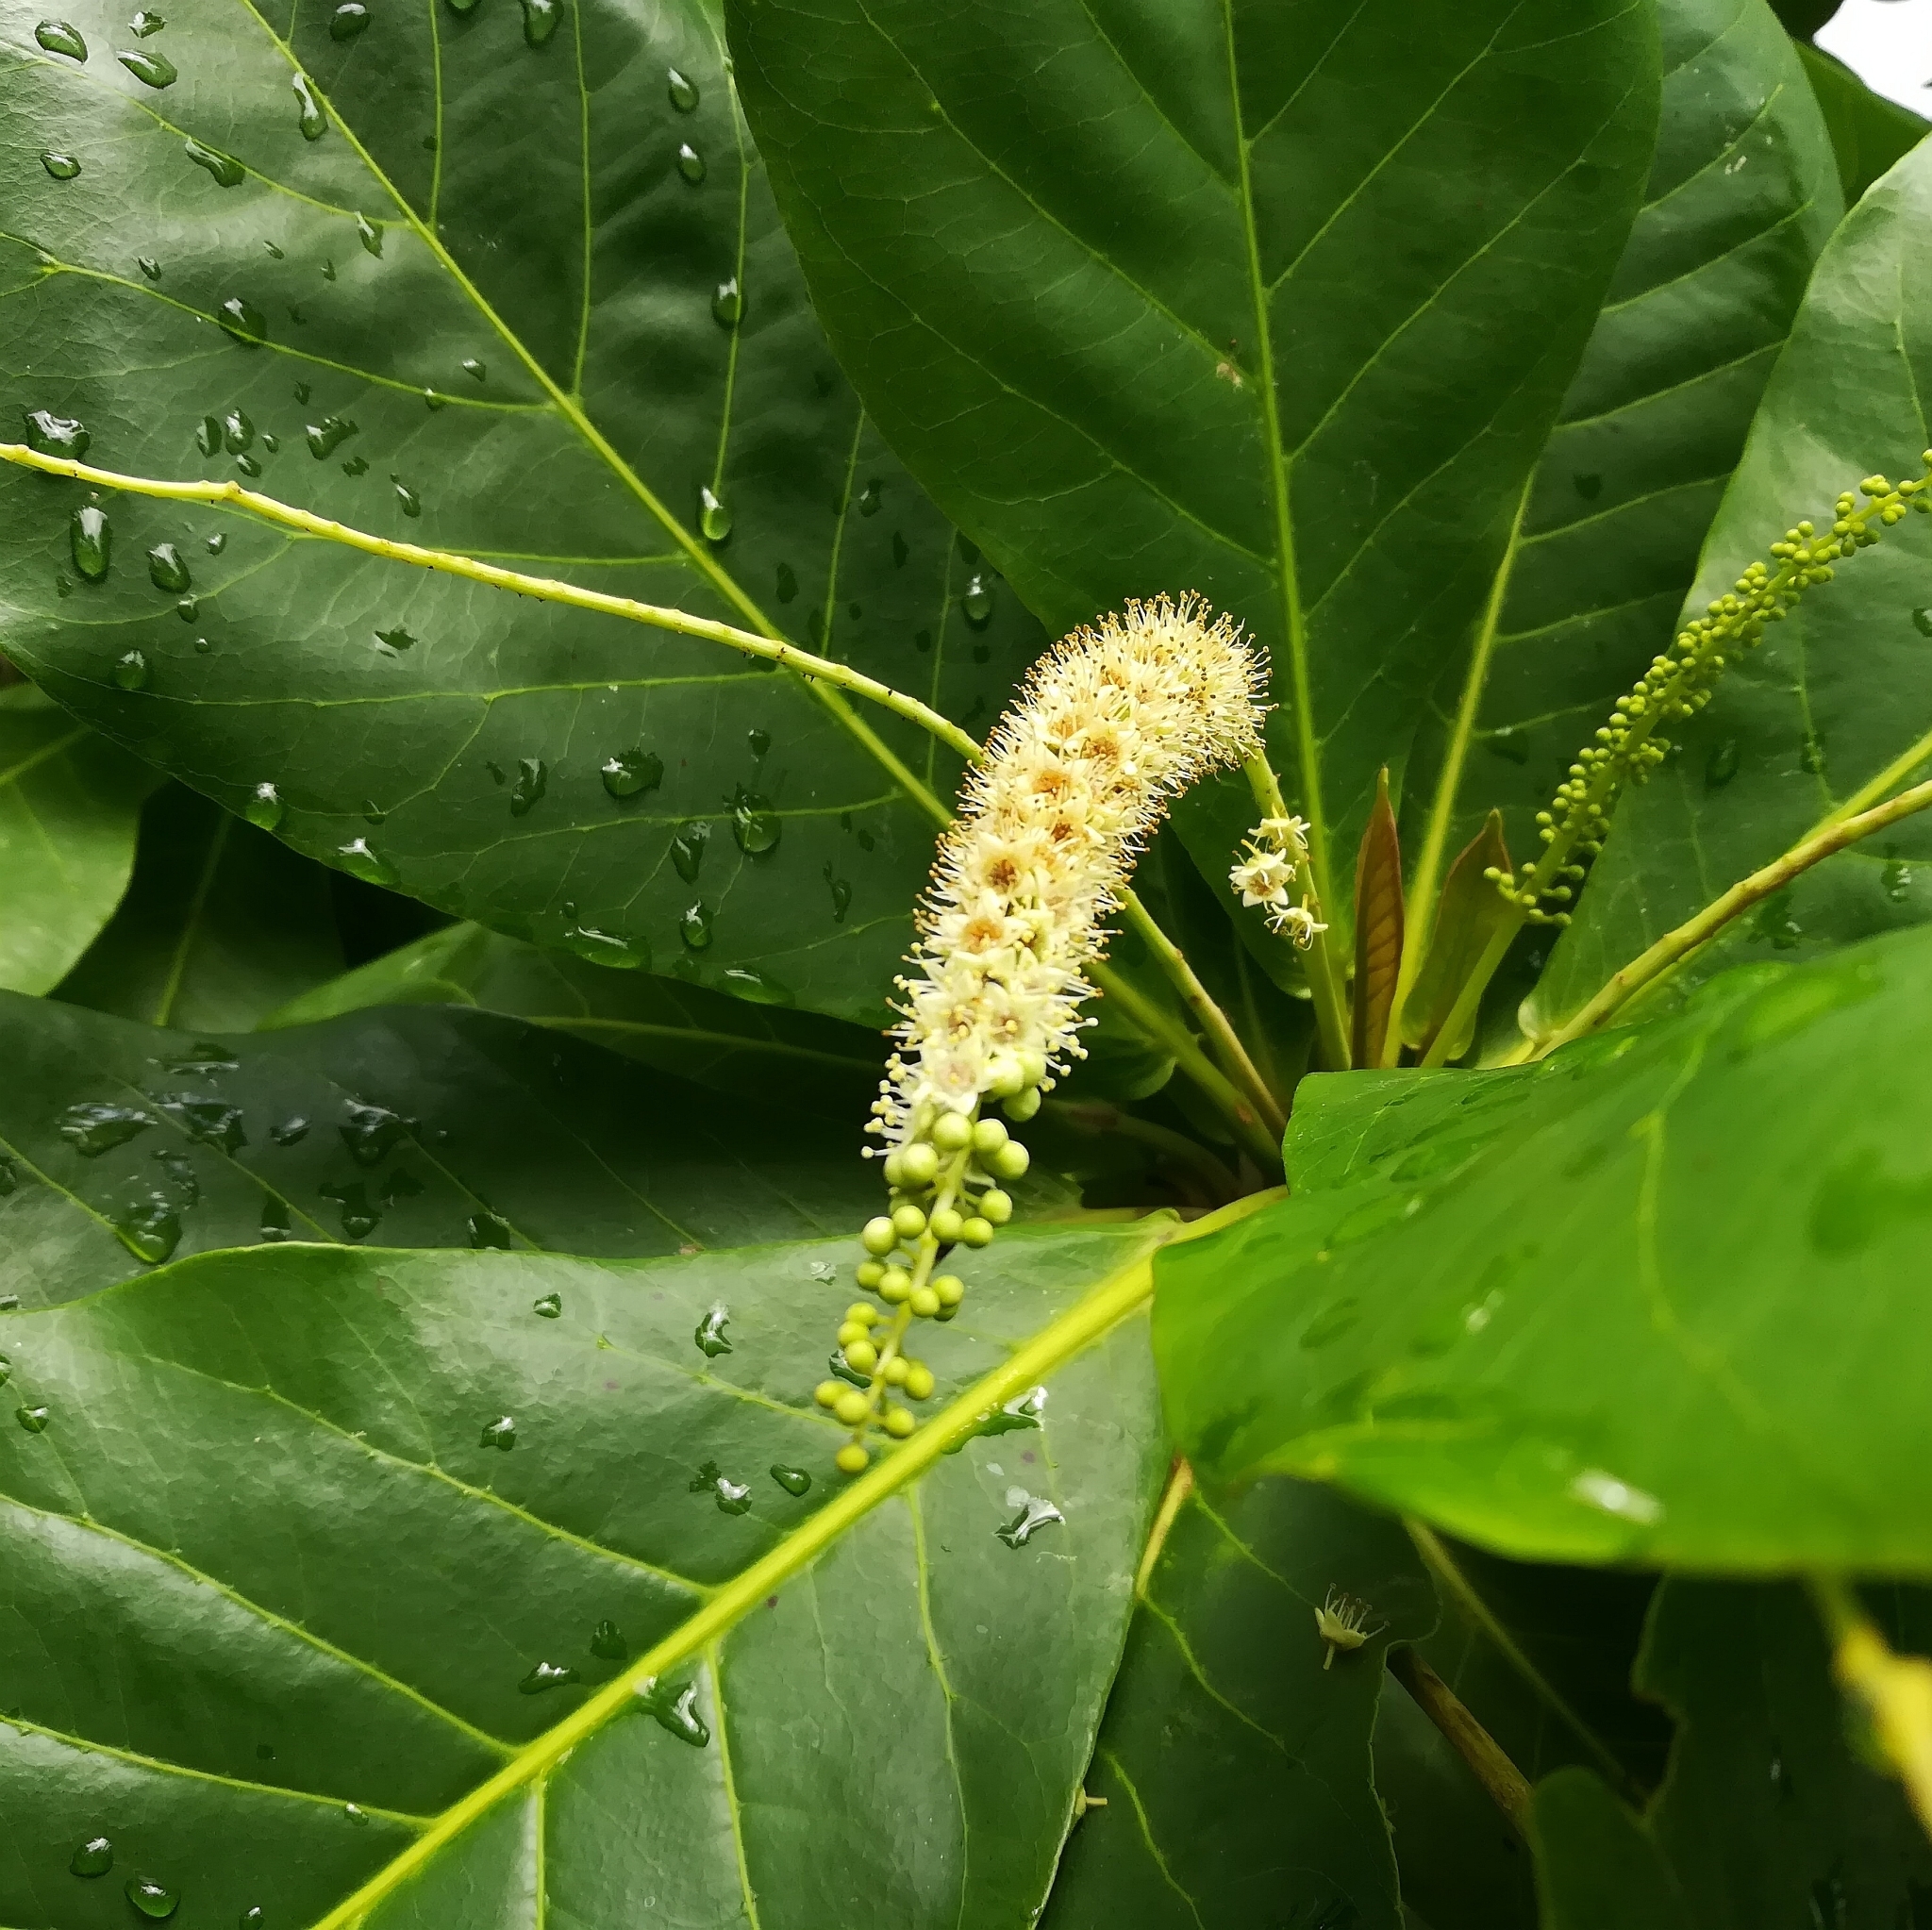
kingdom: Plantae
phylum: Tracheophyta
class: Magnoliopsida
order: Myrtales
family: Combretaceae
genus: Terminalia
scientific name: Terminalia catappa
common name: Tropical almond
